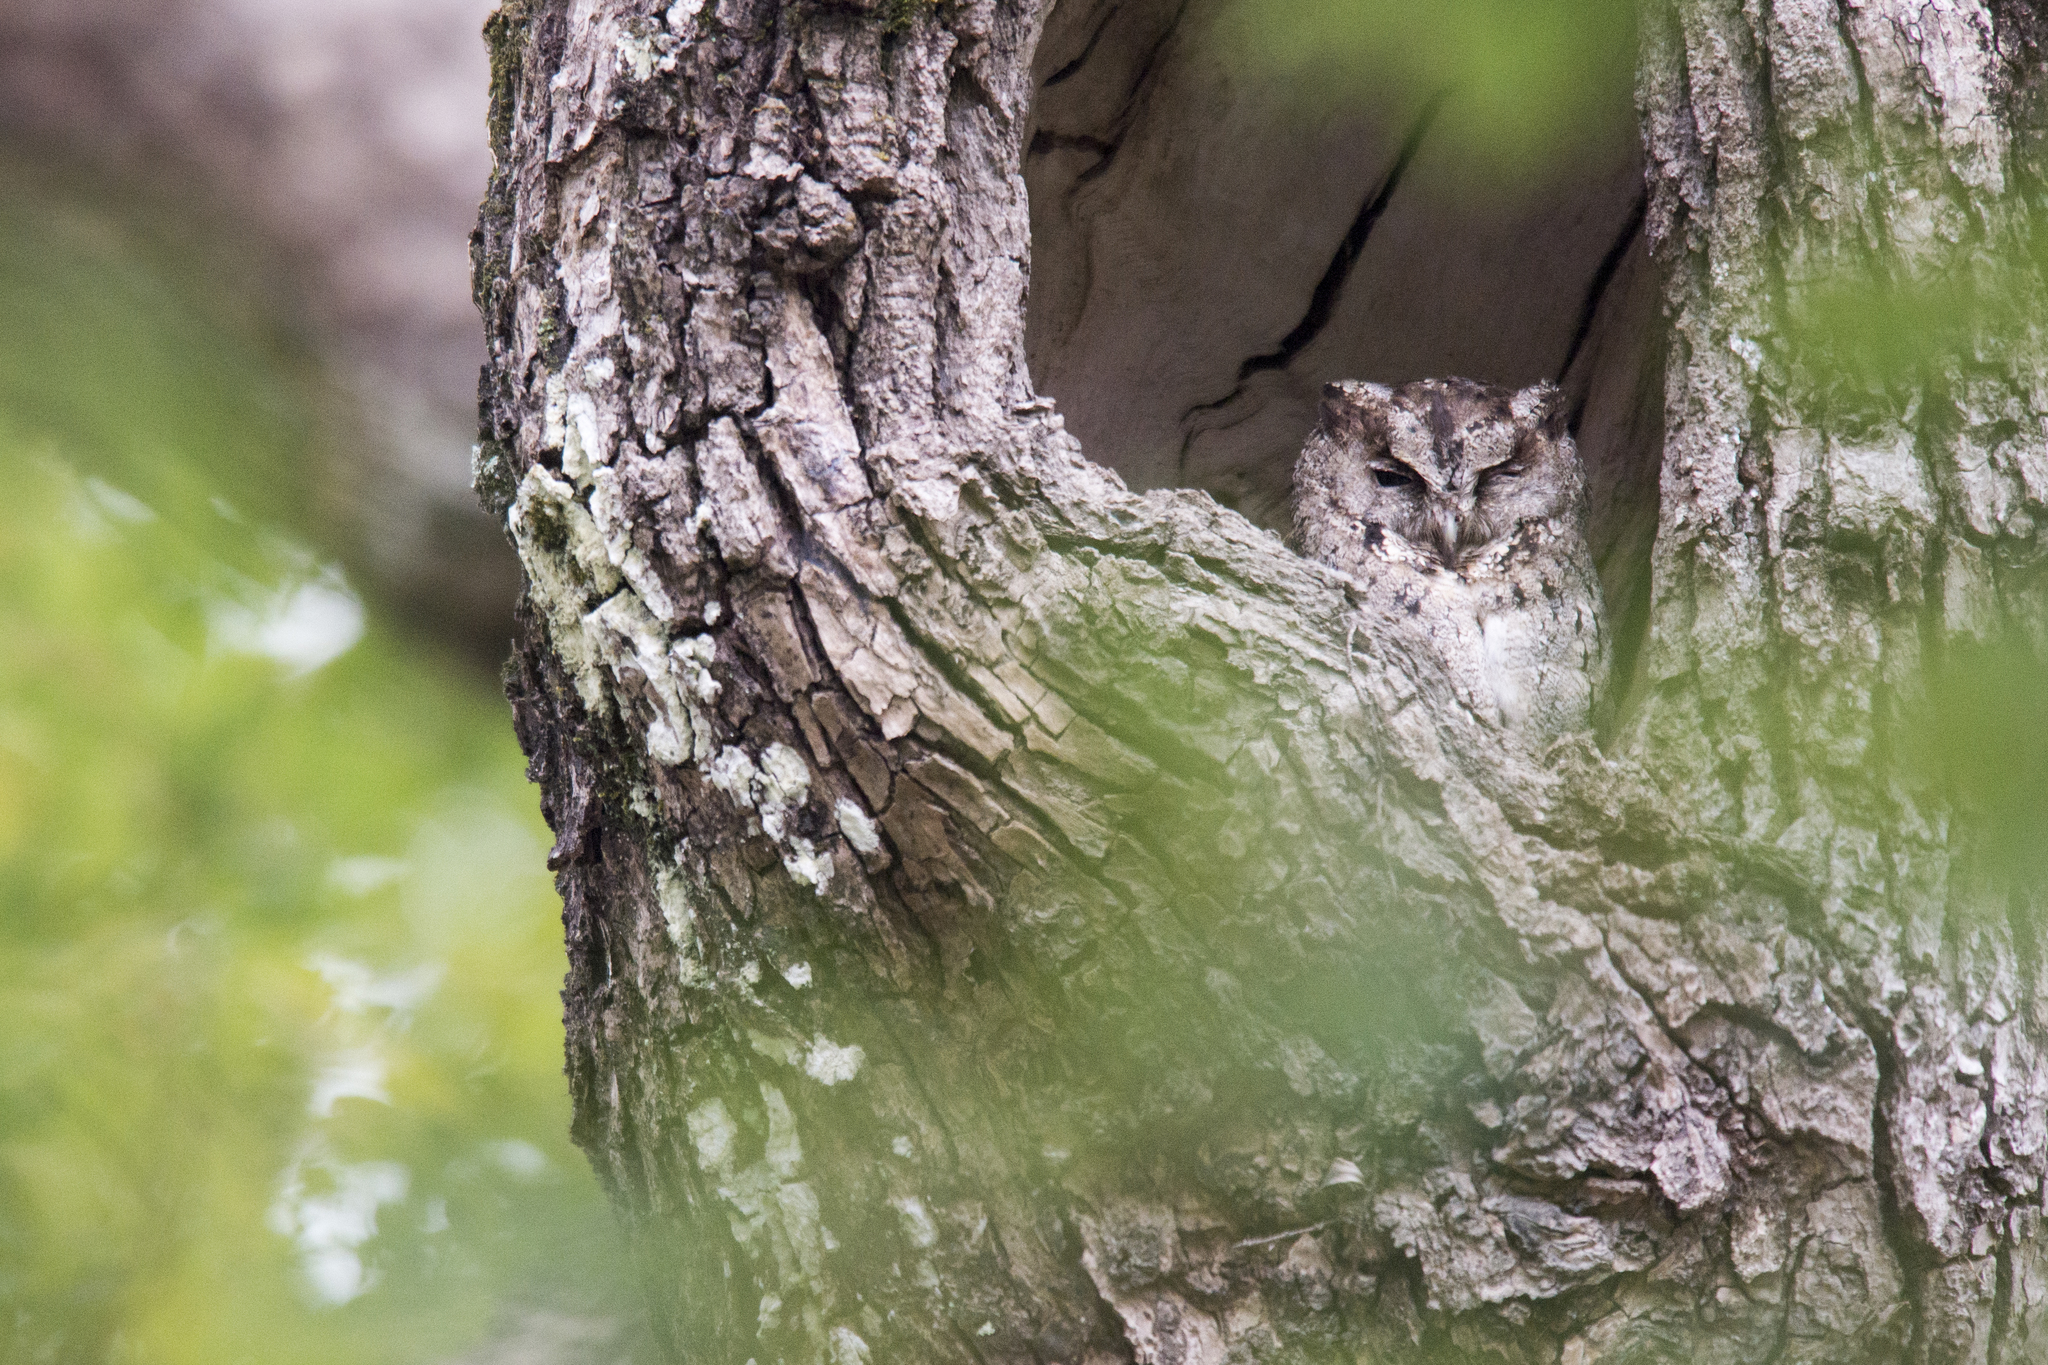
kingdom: Animalia
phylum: Chordata
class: Aves
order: Strigiformes
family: Strigidae
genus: Otus
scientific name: Otus lettia
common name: Collared scops owl
